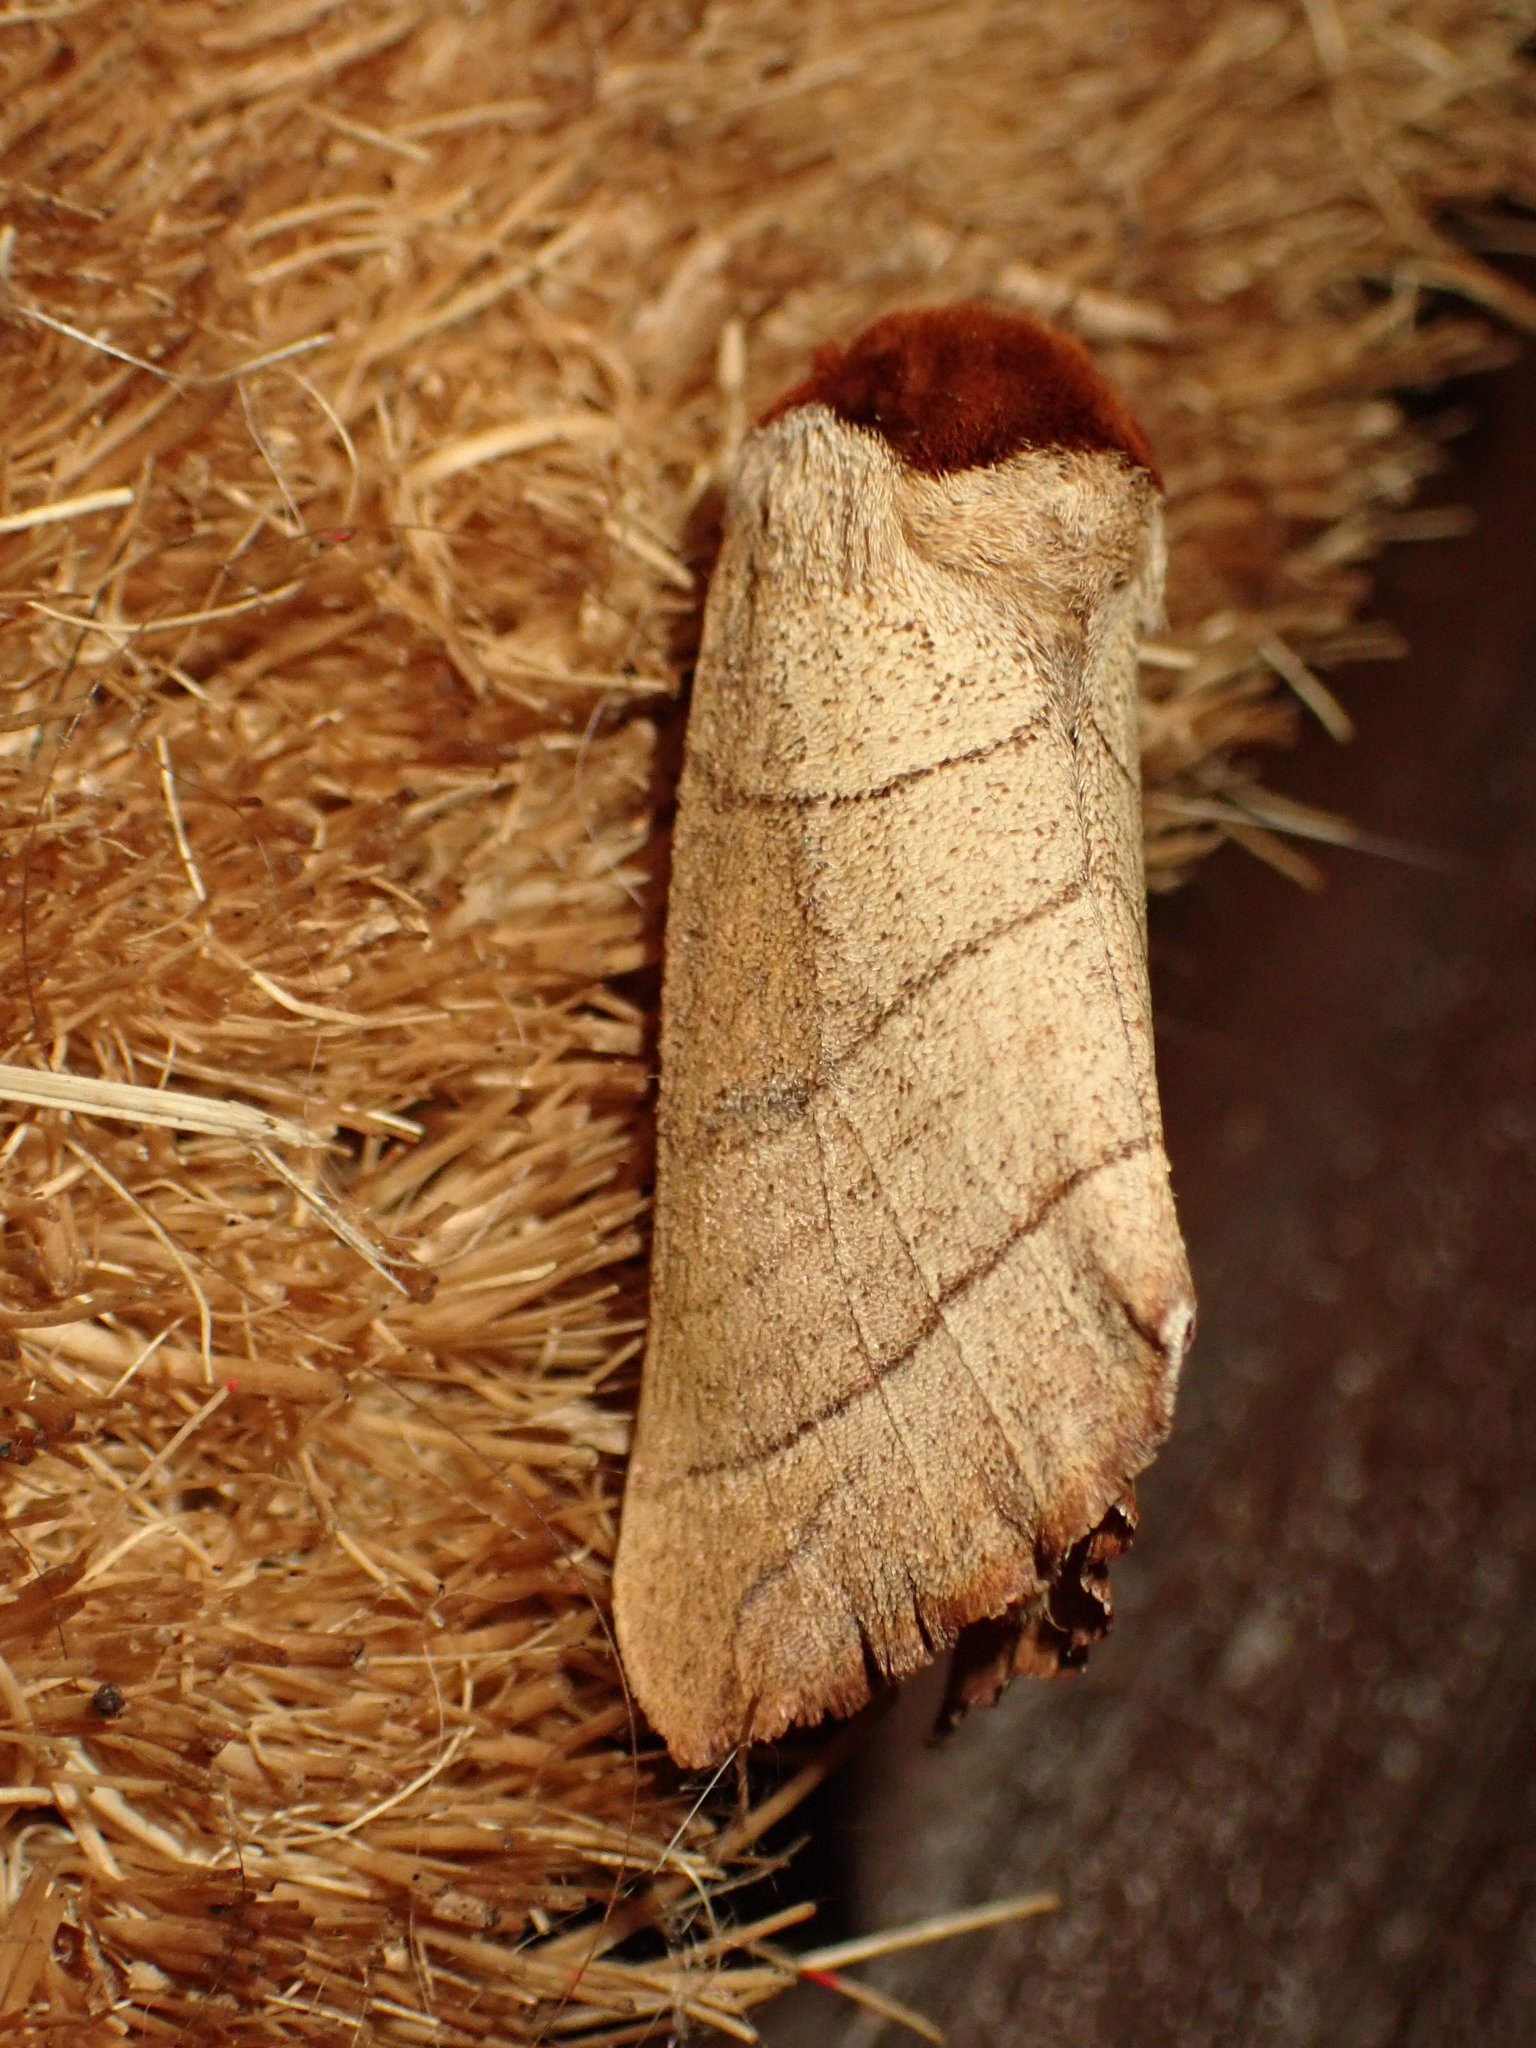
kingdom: Animalia
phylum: Arthropoda
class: Insecta
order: Lepidoptera
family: Notodontidae
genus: Datana
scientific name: Datana ministra
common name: Yellow-necked caterpillar moth
